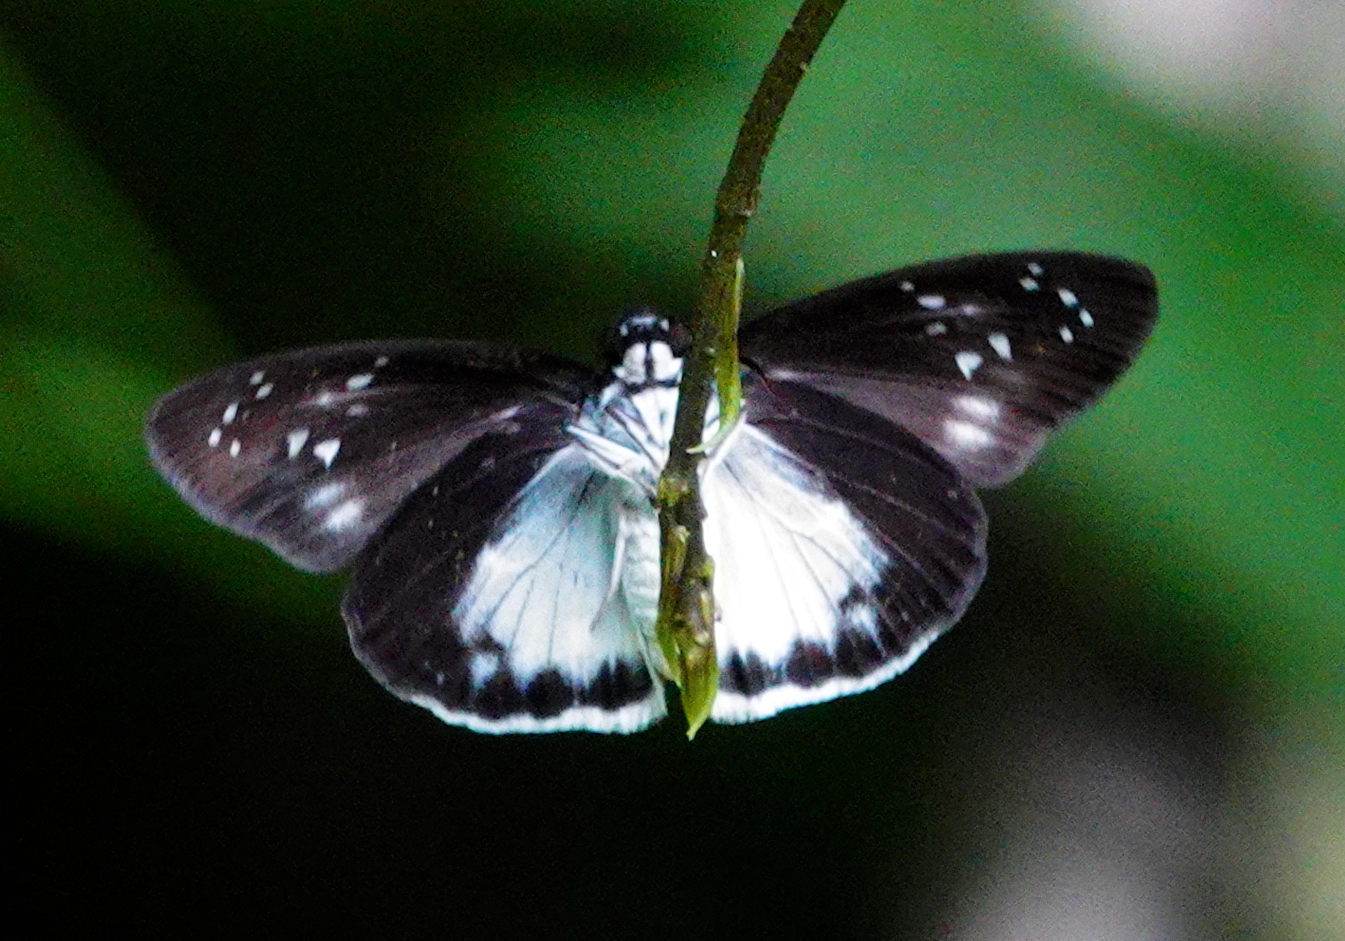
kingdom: Animalia
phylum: Arthropoda
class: Insecta
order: Lepidoptera
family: Hesperiidae
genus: Tagiades
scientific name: Tagiades nestus
